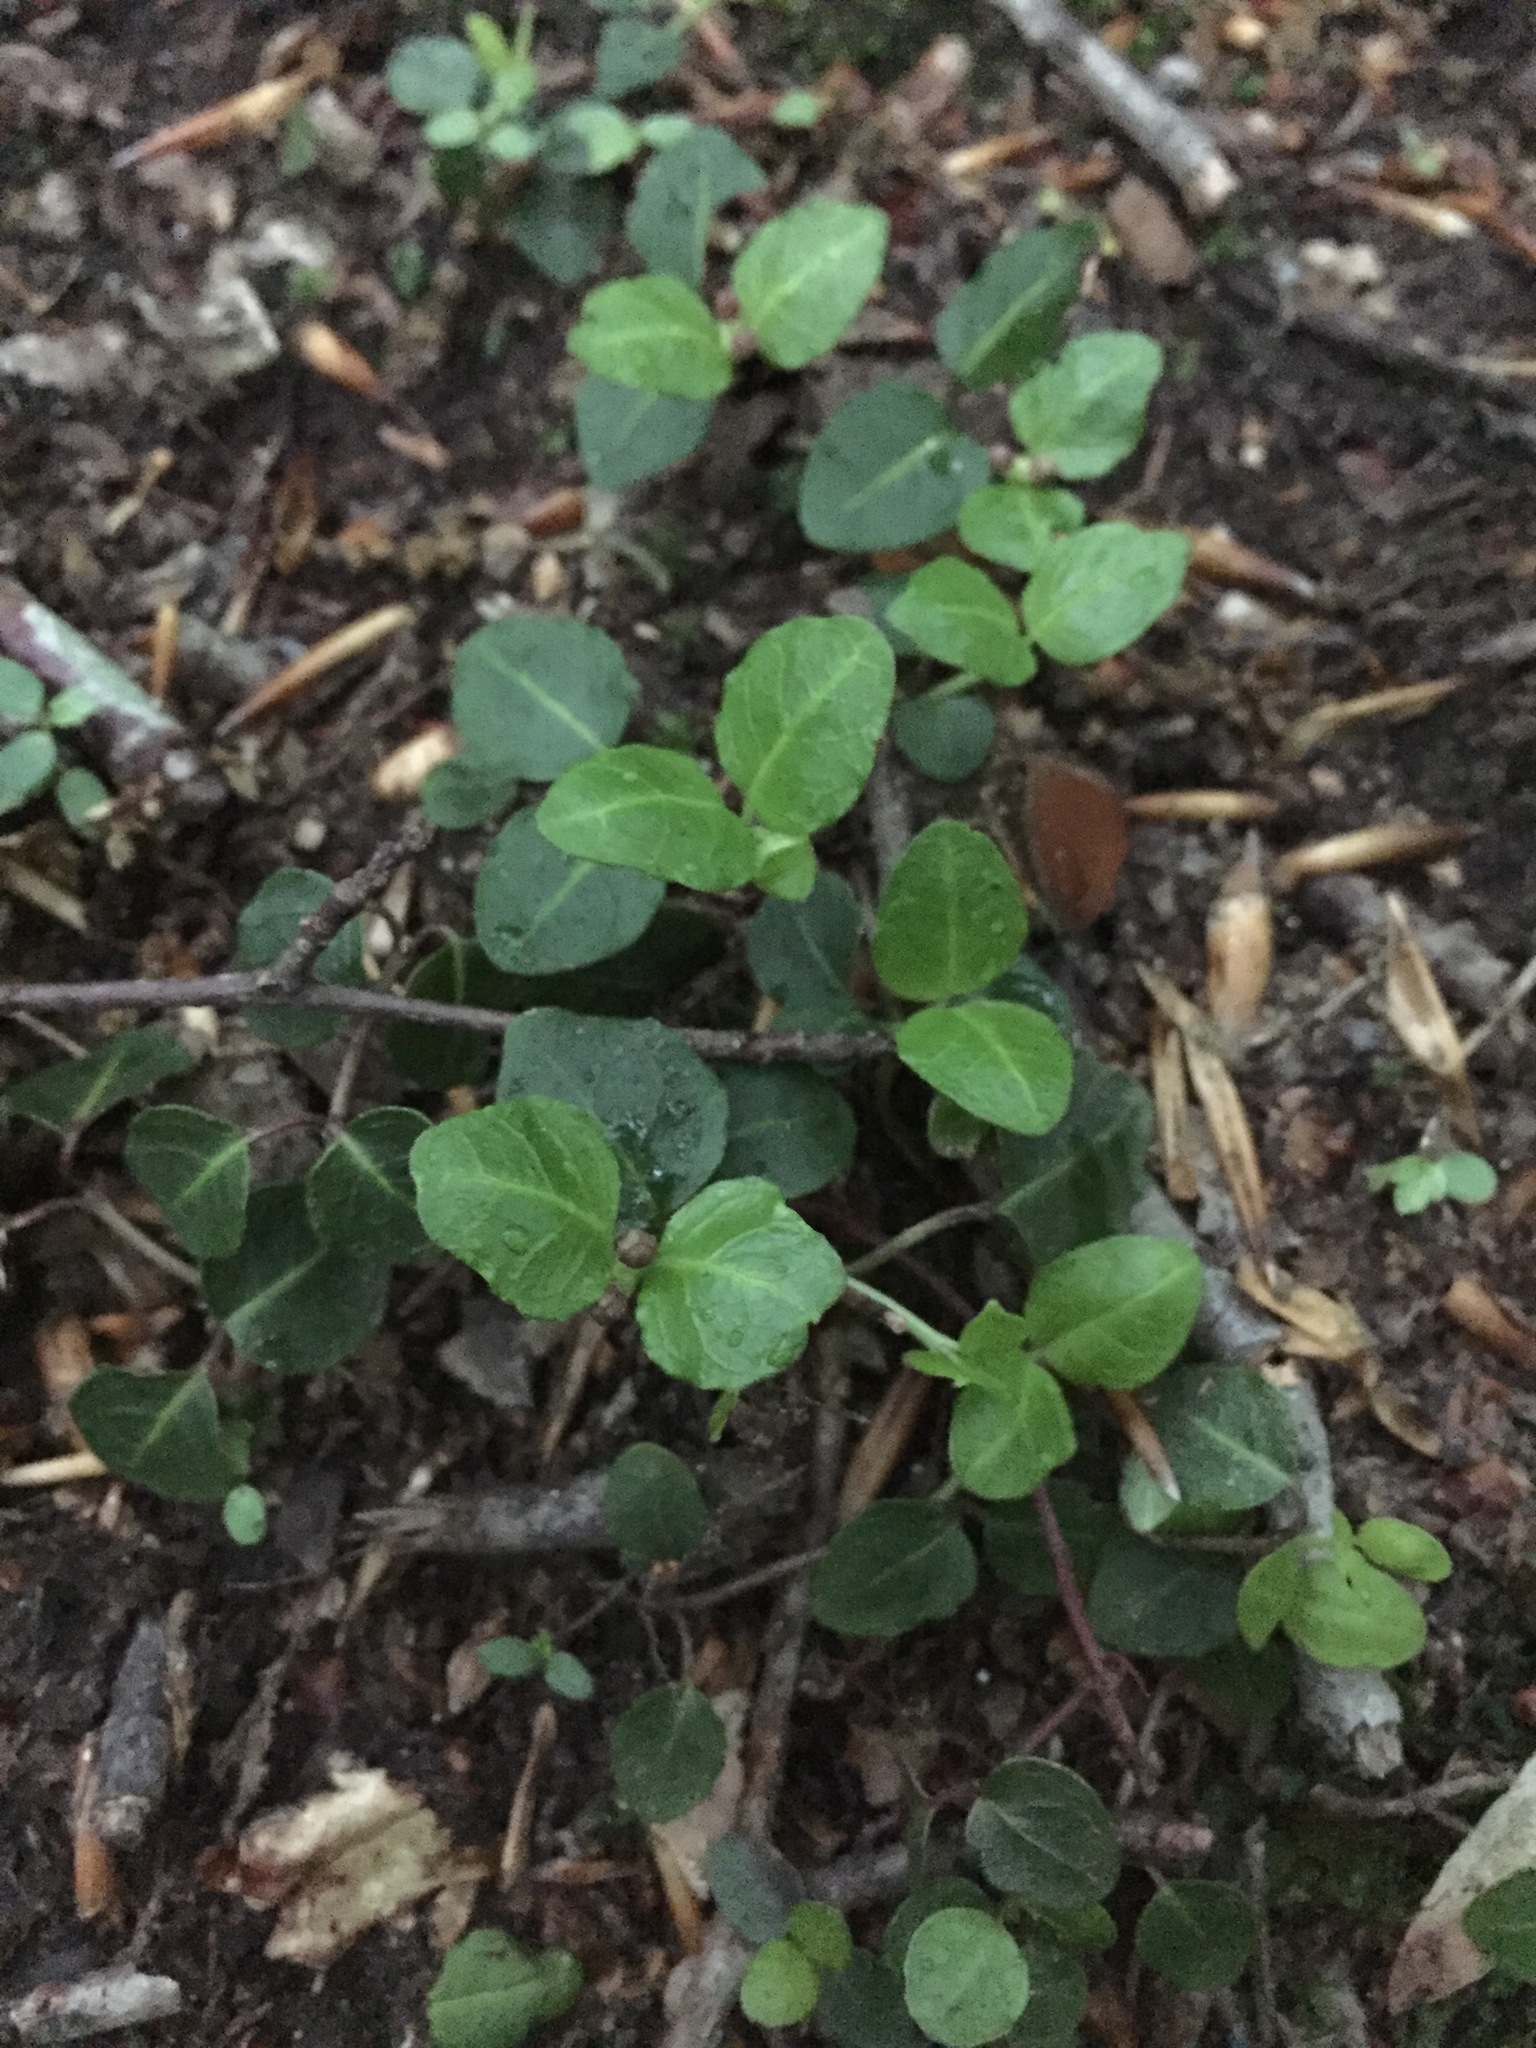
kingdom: Plantae
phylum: Tracheophyta
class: Magnoliopsida
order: Gentianales
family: Rubiaceae
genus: Mitchella
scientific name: Mitchella repens
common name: Partridge-berry
